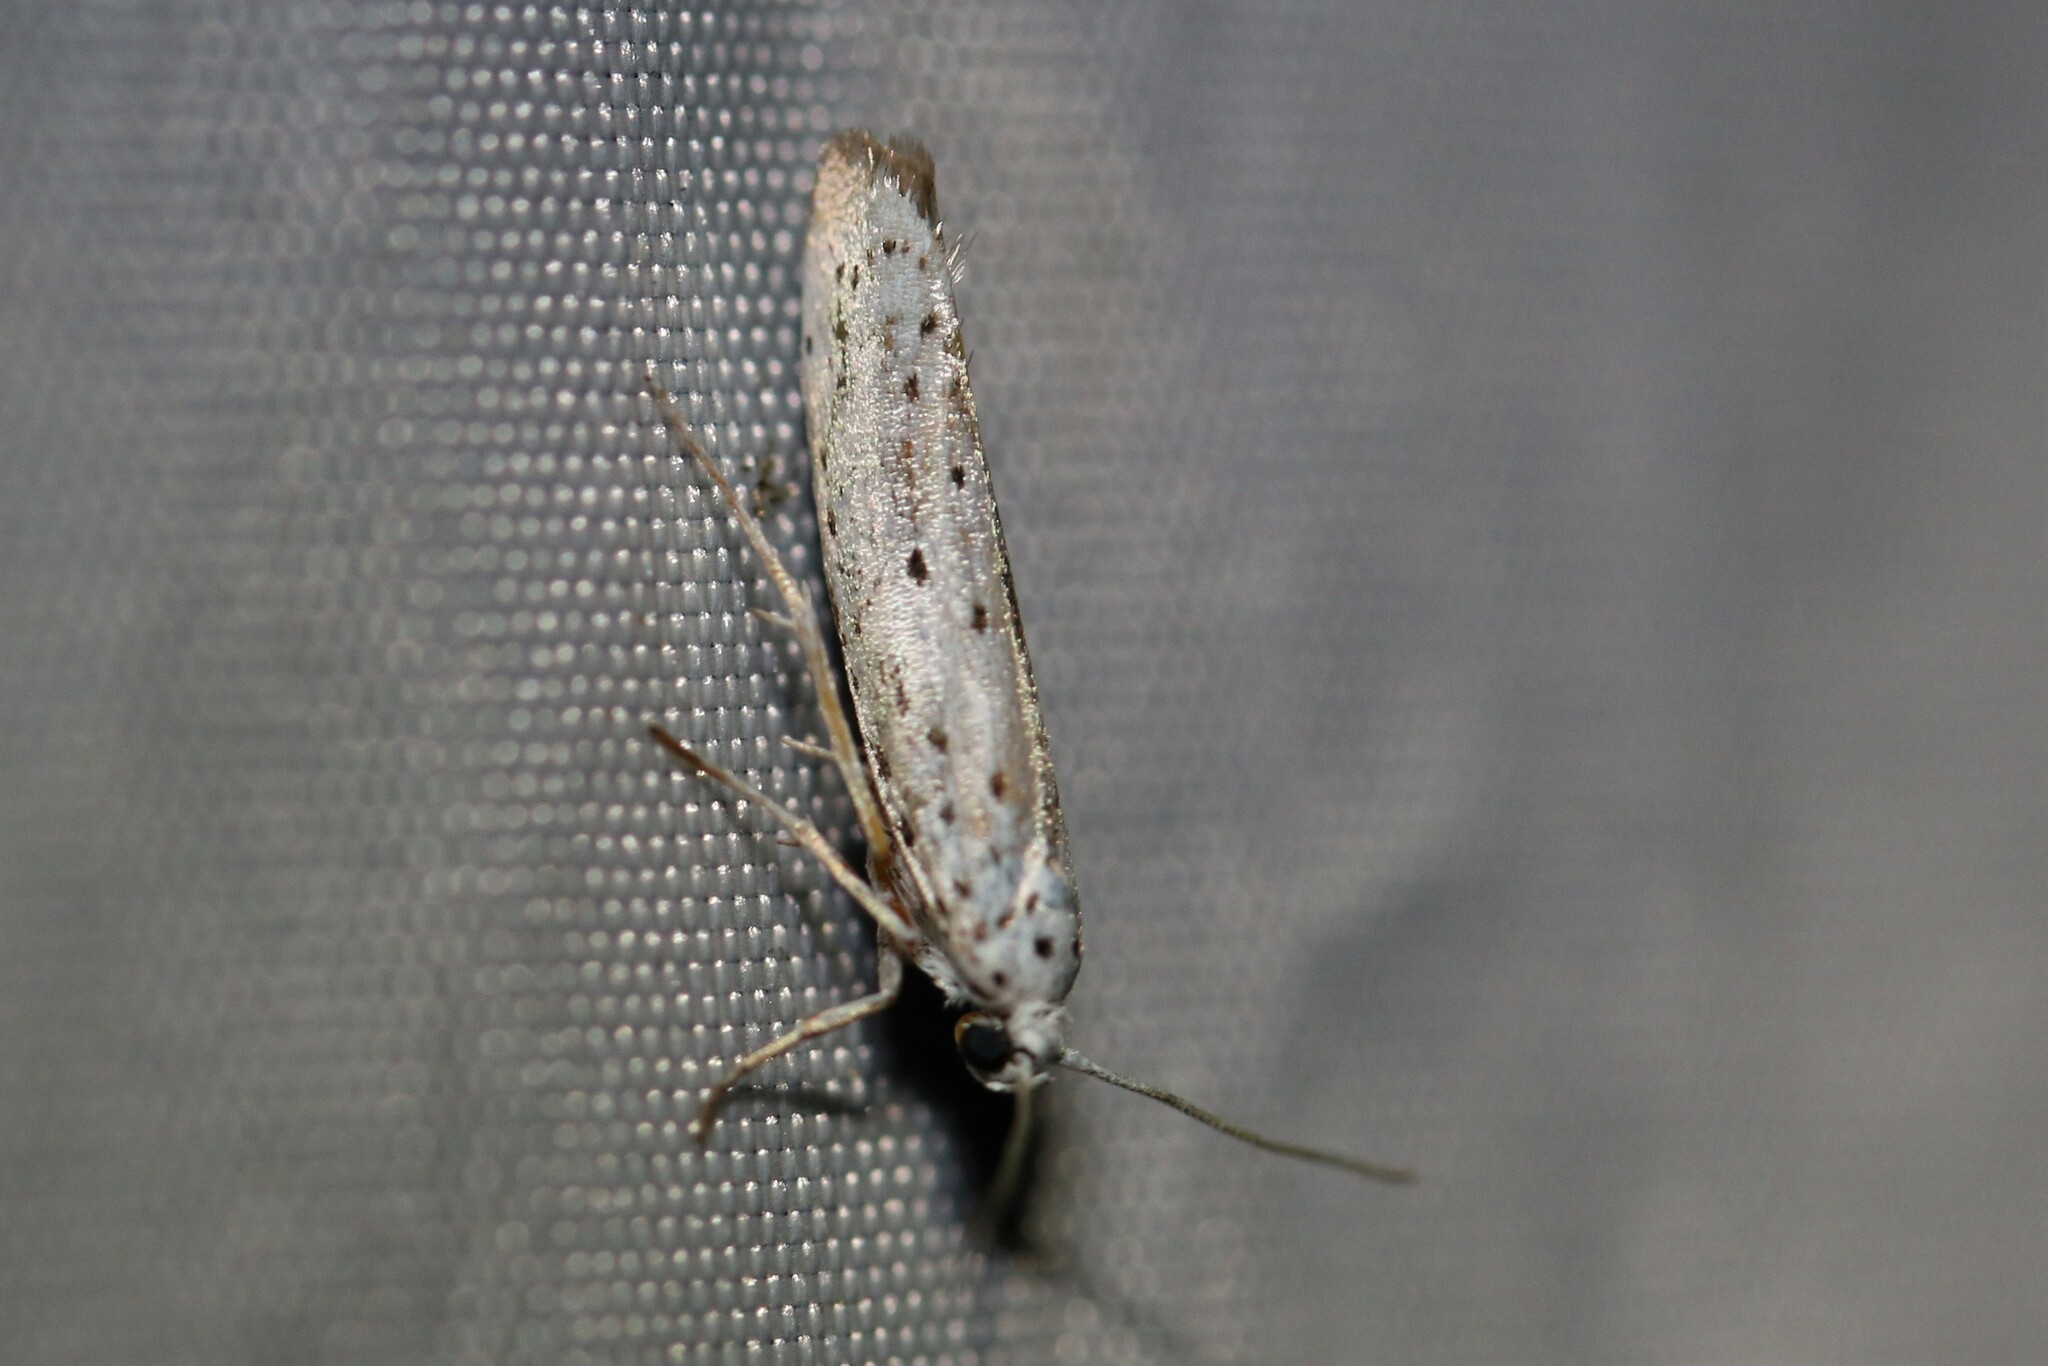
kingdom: Animalia
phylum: Arthropoda
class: Insecta
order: Lepidoptera
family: Yponomeutidae
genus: Yponomeuta
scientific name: Yponomeuta
